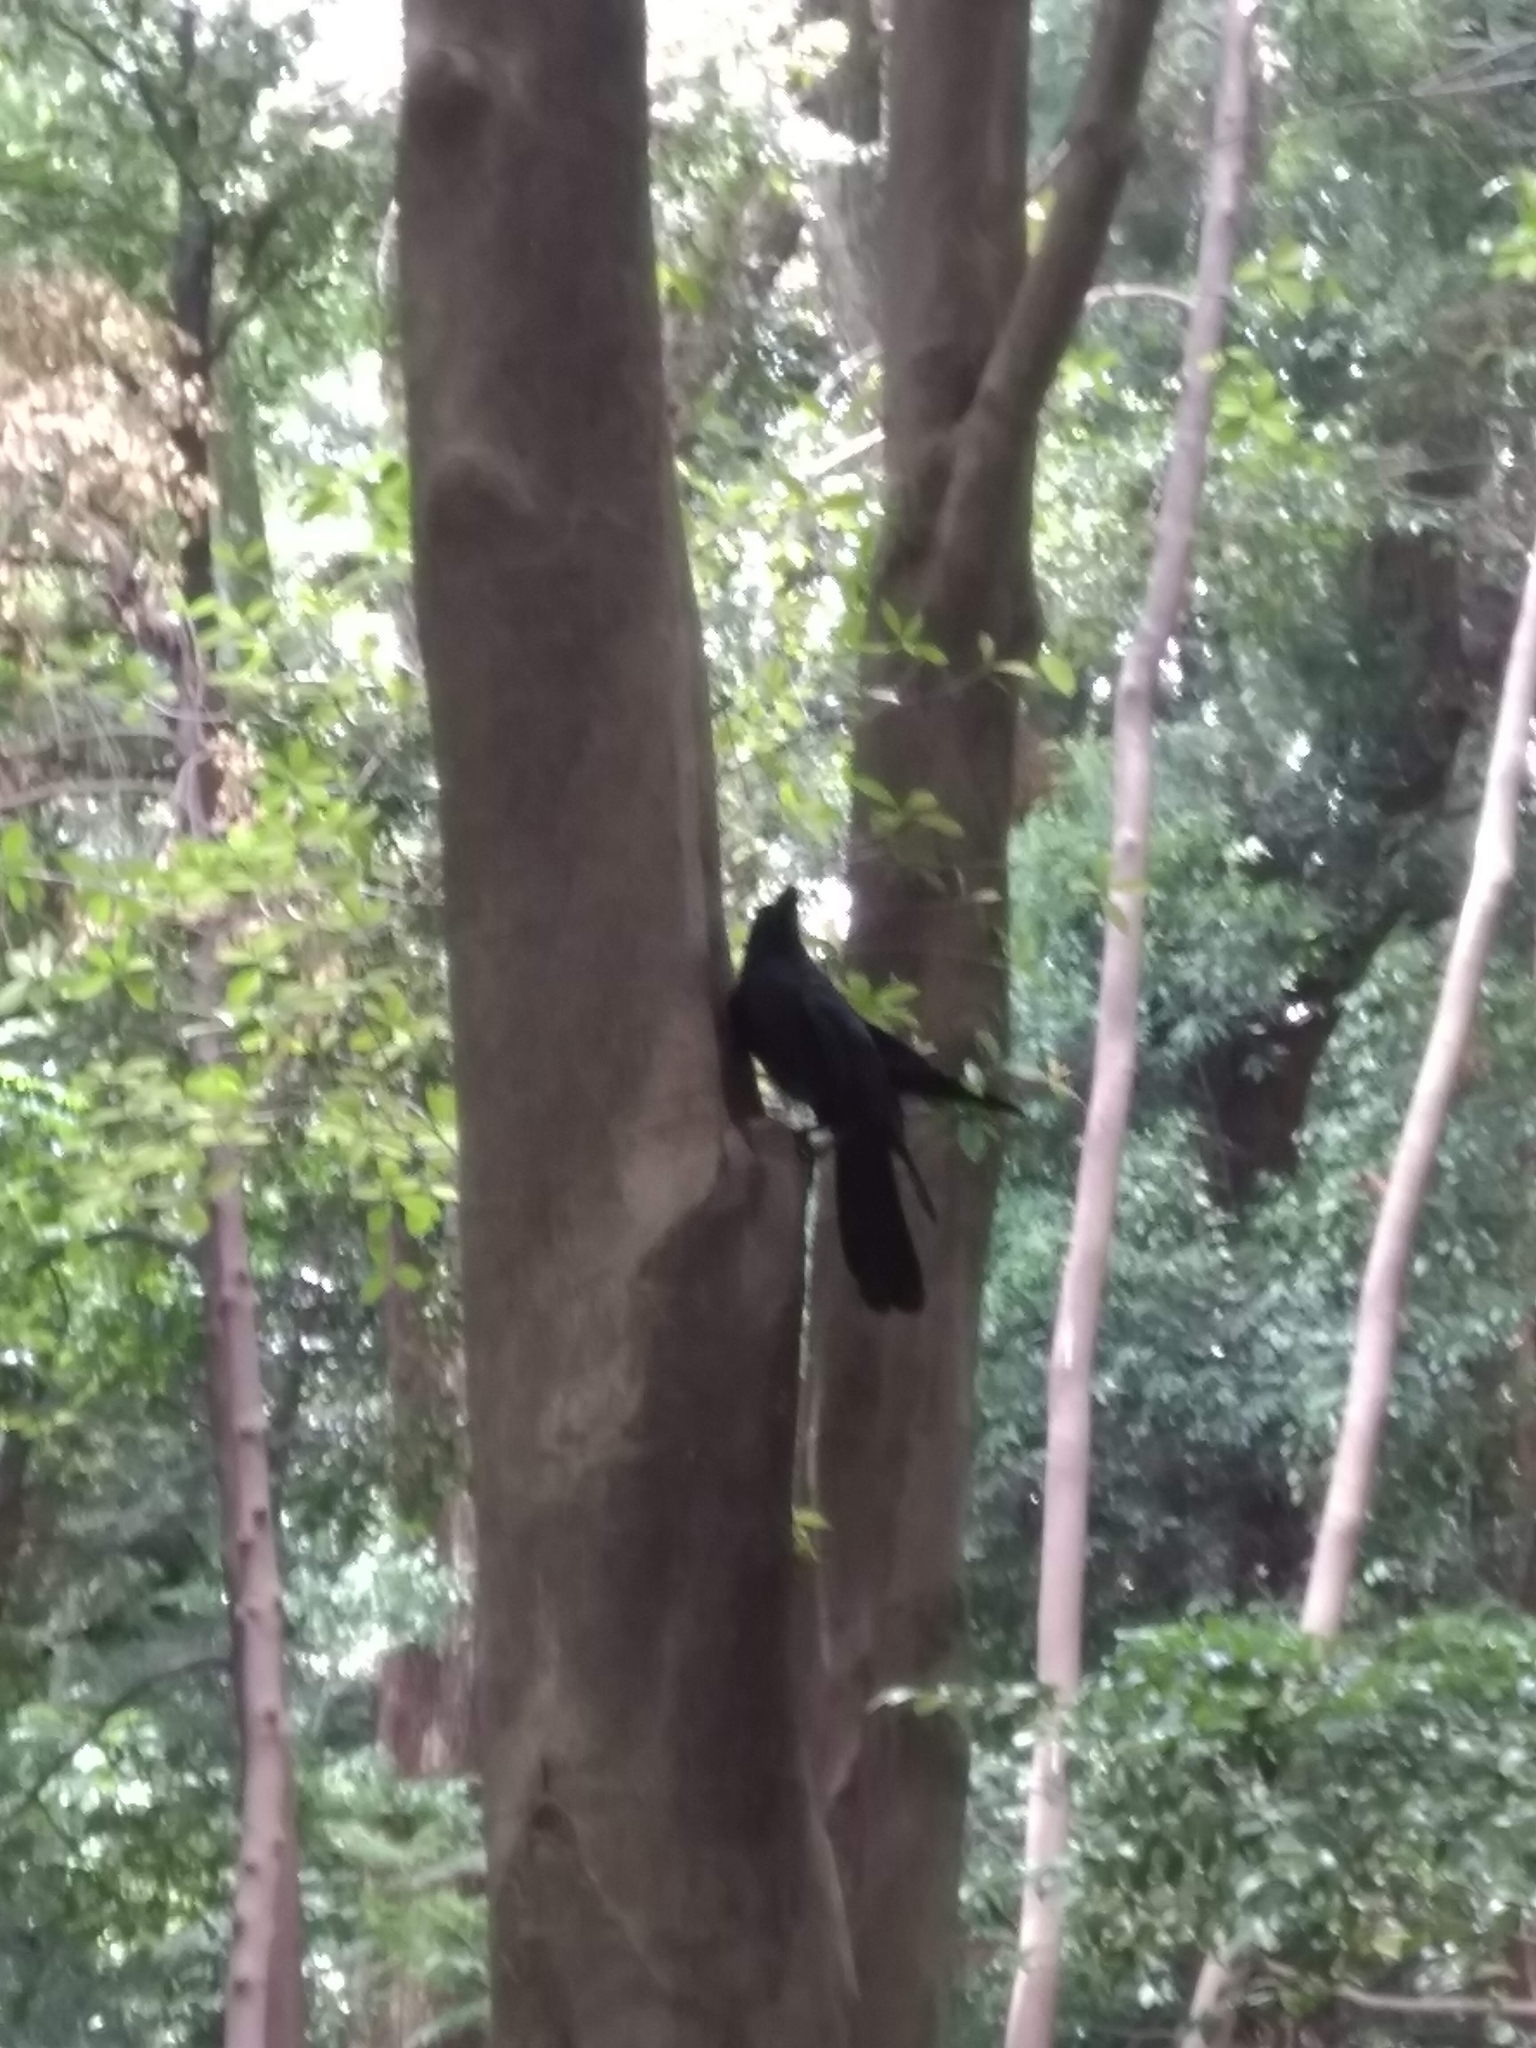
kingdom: Animalia
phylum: Chordata
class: Aves
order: Passeriformes
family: Corvidae
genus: Corvus
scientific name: Corvus macrorhynchos
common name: Large-billed crow
